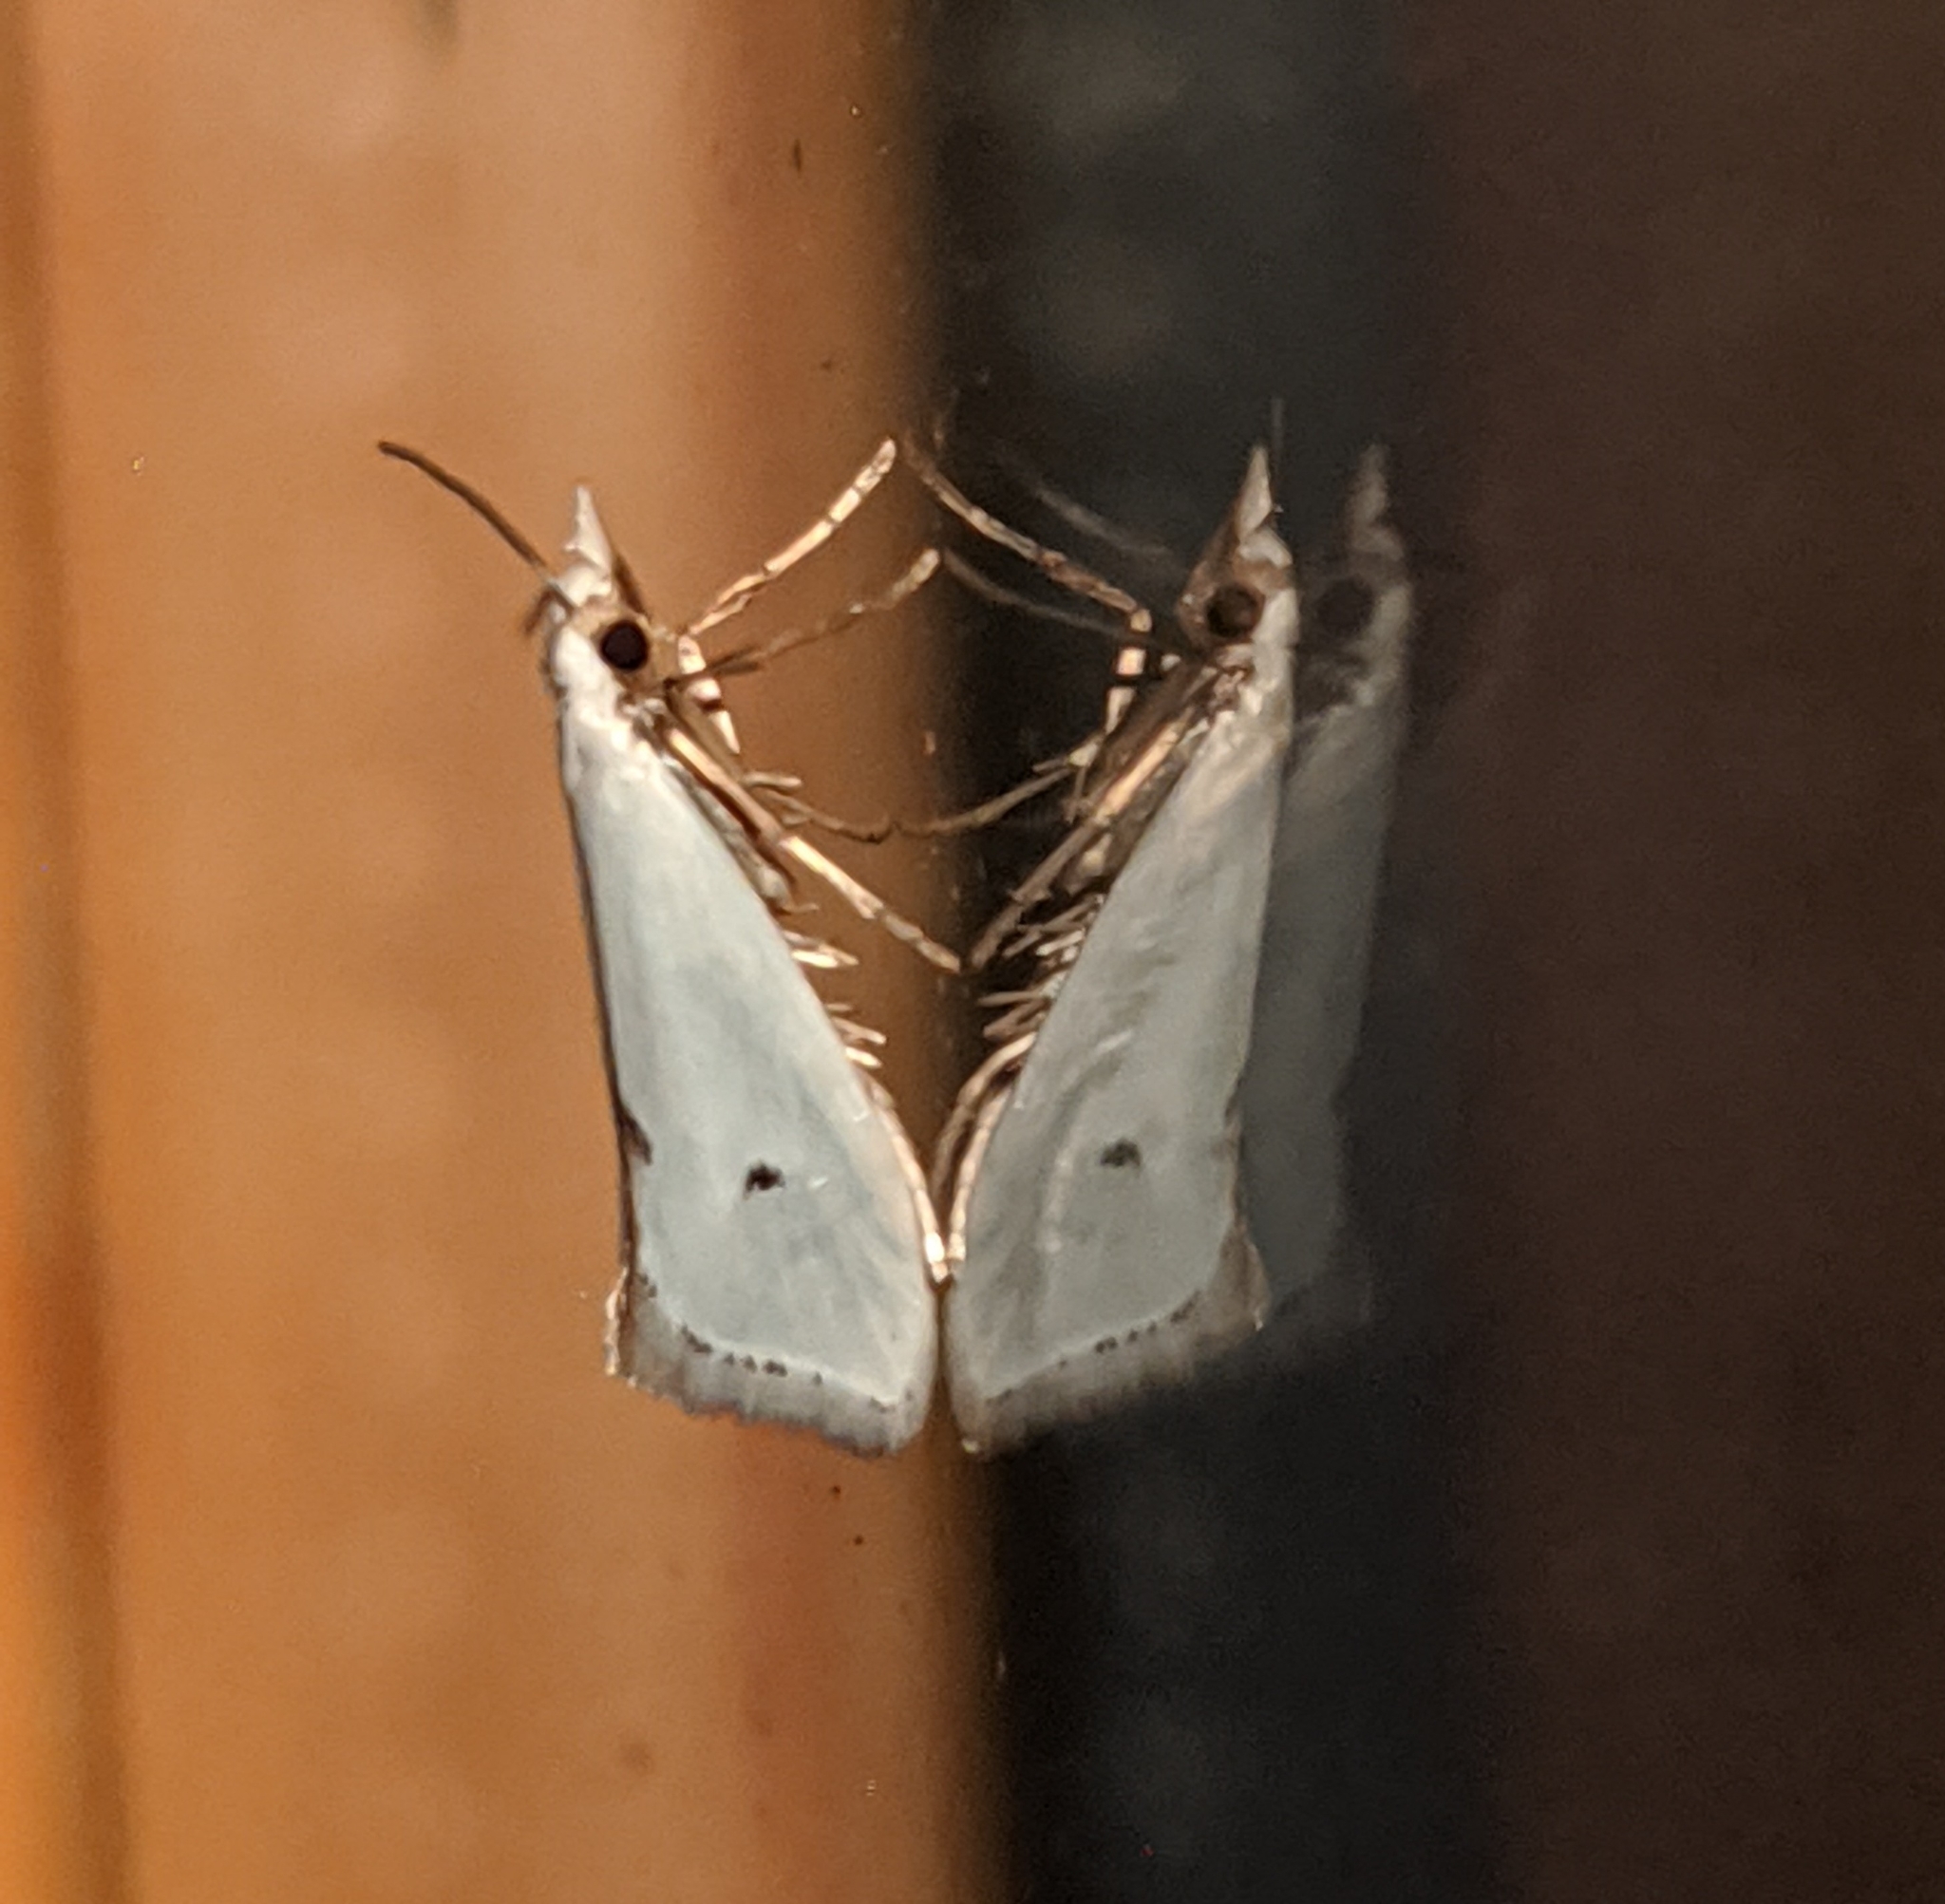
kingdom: Animalia
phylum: Arthropoda
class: Insecta
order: Lepidoptera
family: Yponomeutidae
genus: Eucalantica
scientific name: Eucalantica polita
